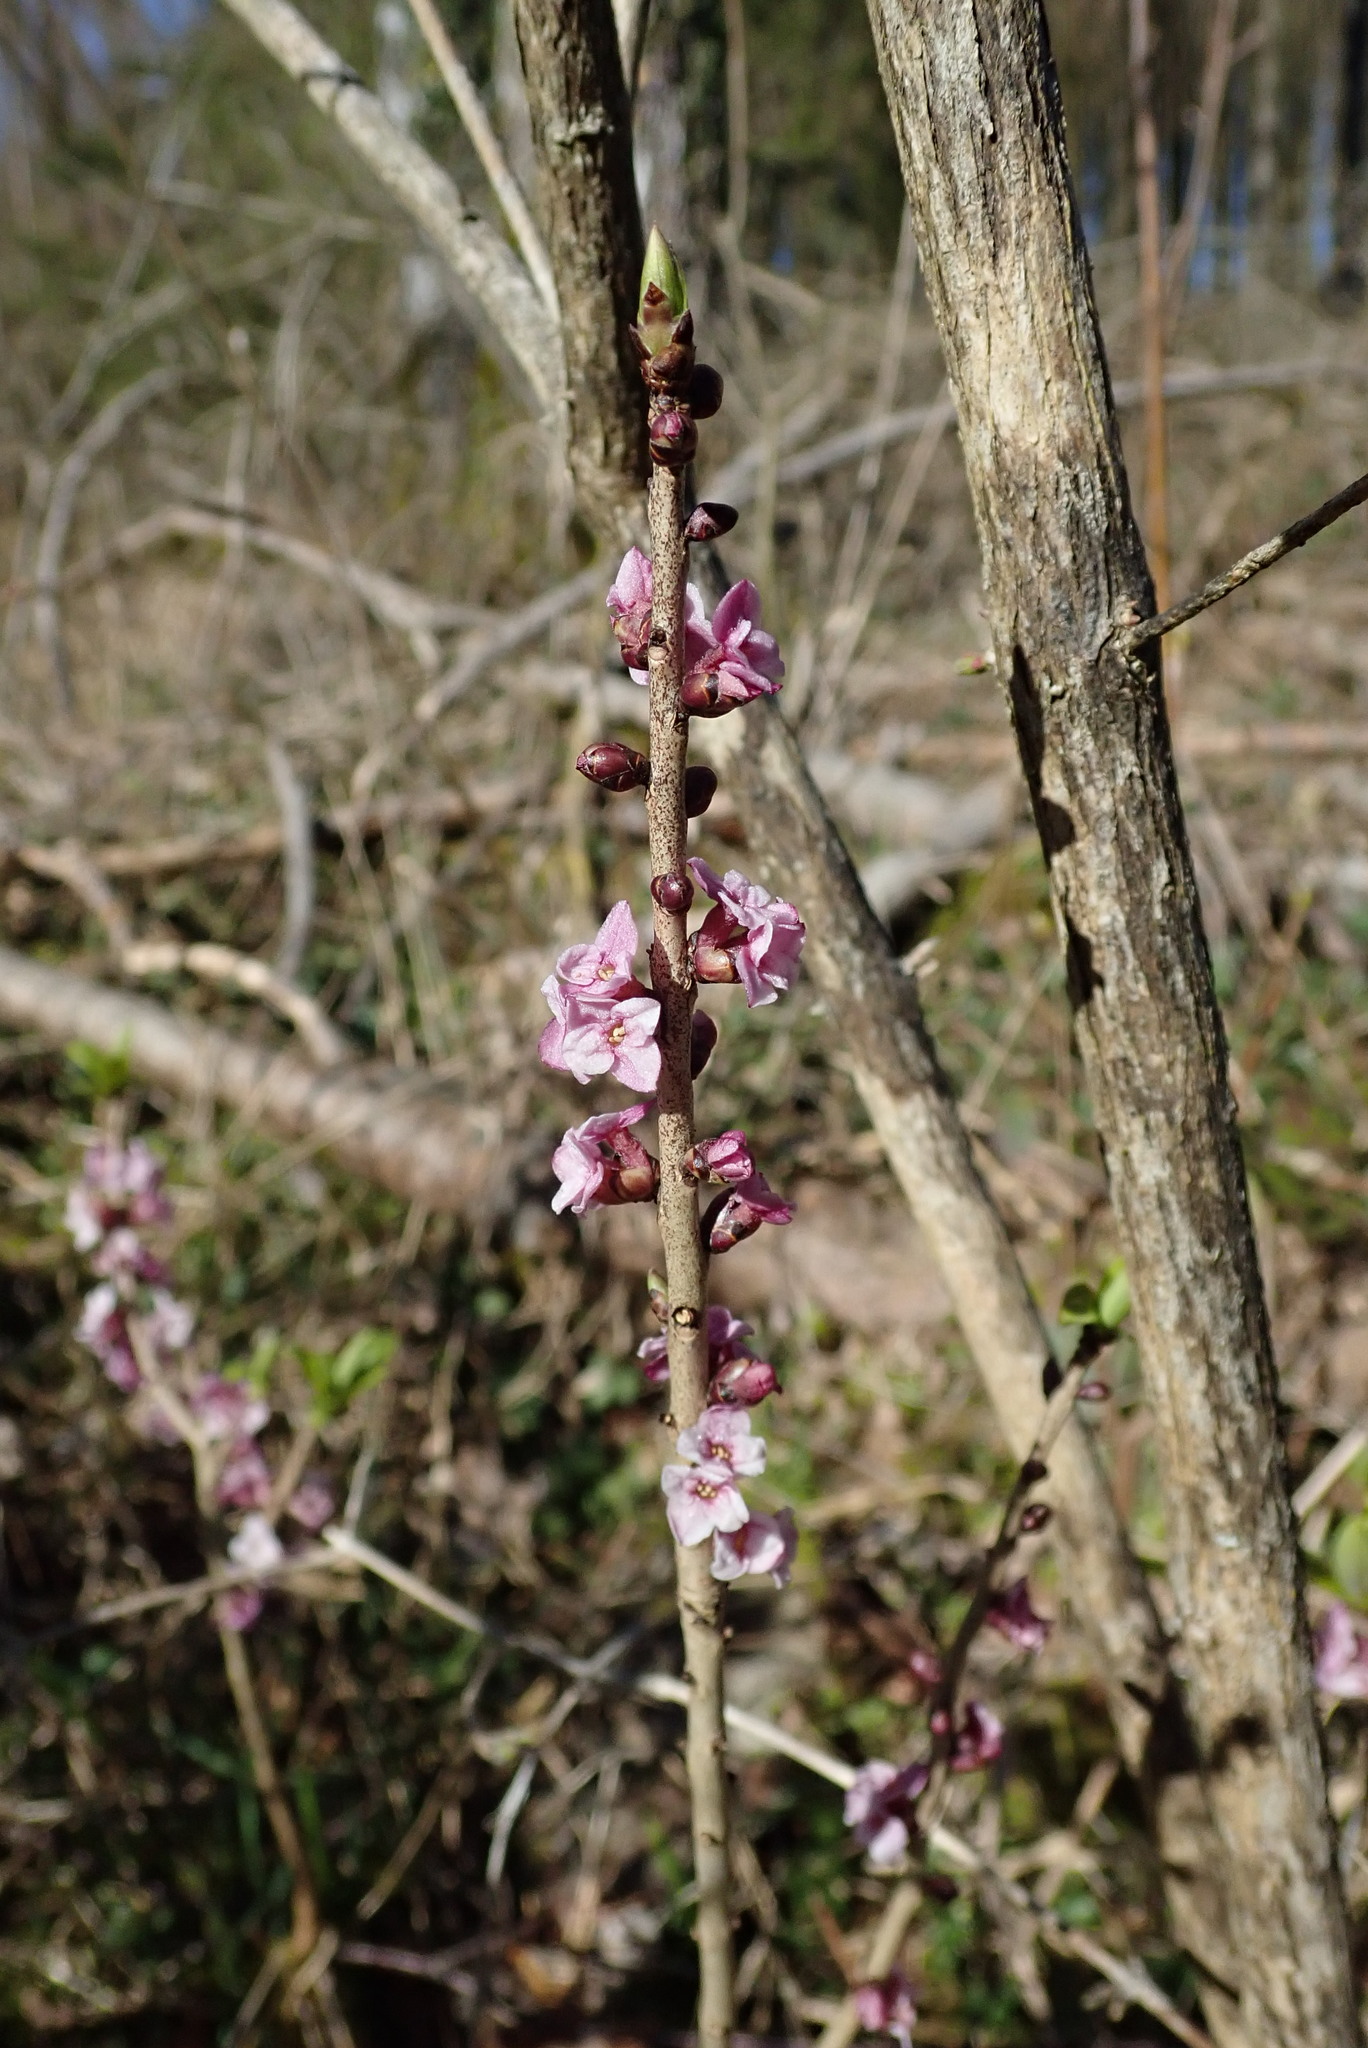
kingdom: Plantae
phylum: Tracheophyta
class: Magnoliopsida
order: Malvales
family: Thymelaeaceae
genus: Daphne
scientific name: Daphne mezereum
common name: Mezereon
